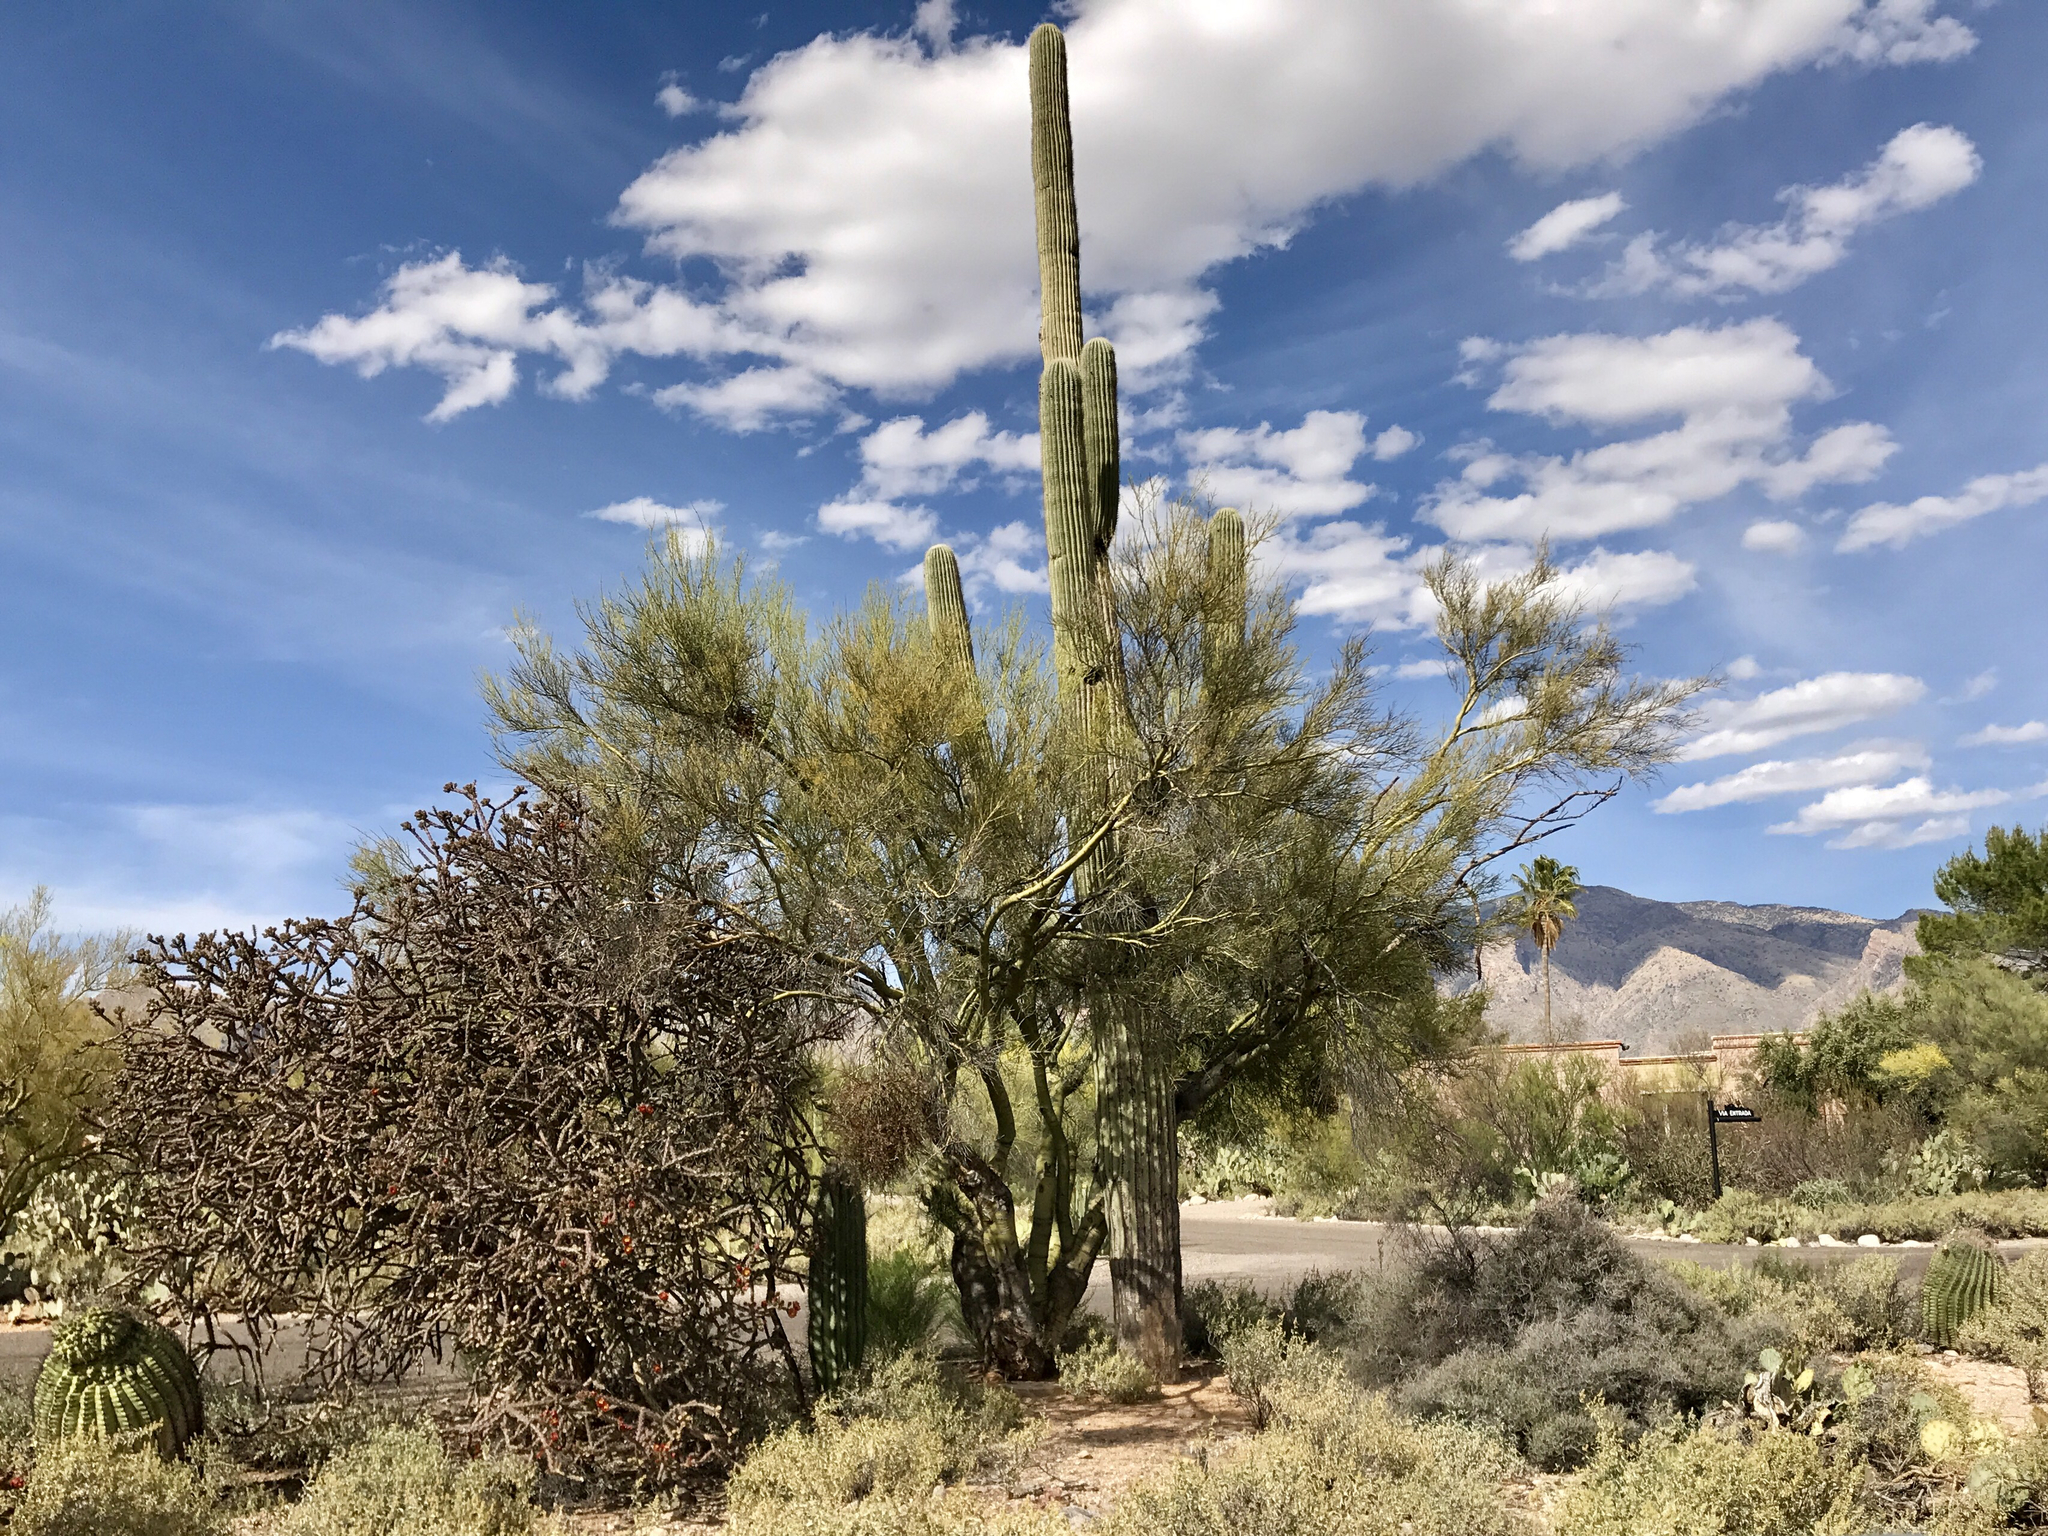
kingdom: Plantae
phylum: Tracheophyta
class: Magnoliopsida
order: Caryophyllales
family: Cactaceae
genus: Carnegiea
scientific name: Carnegiea gigantea
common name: Saguaro
